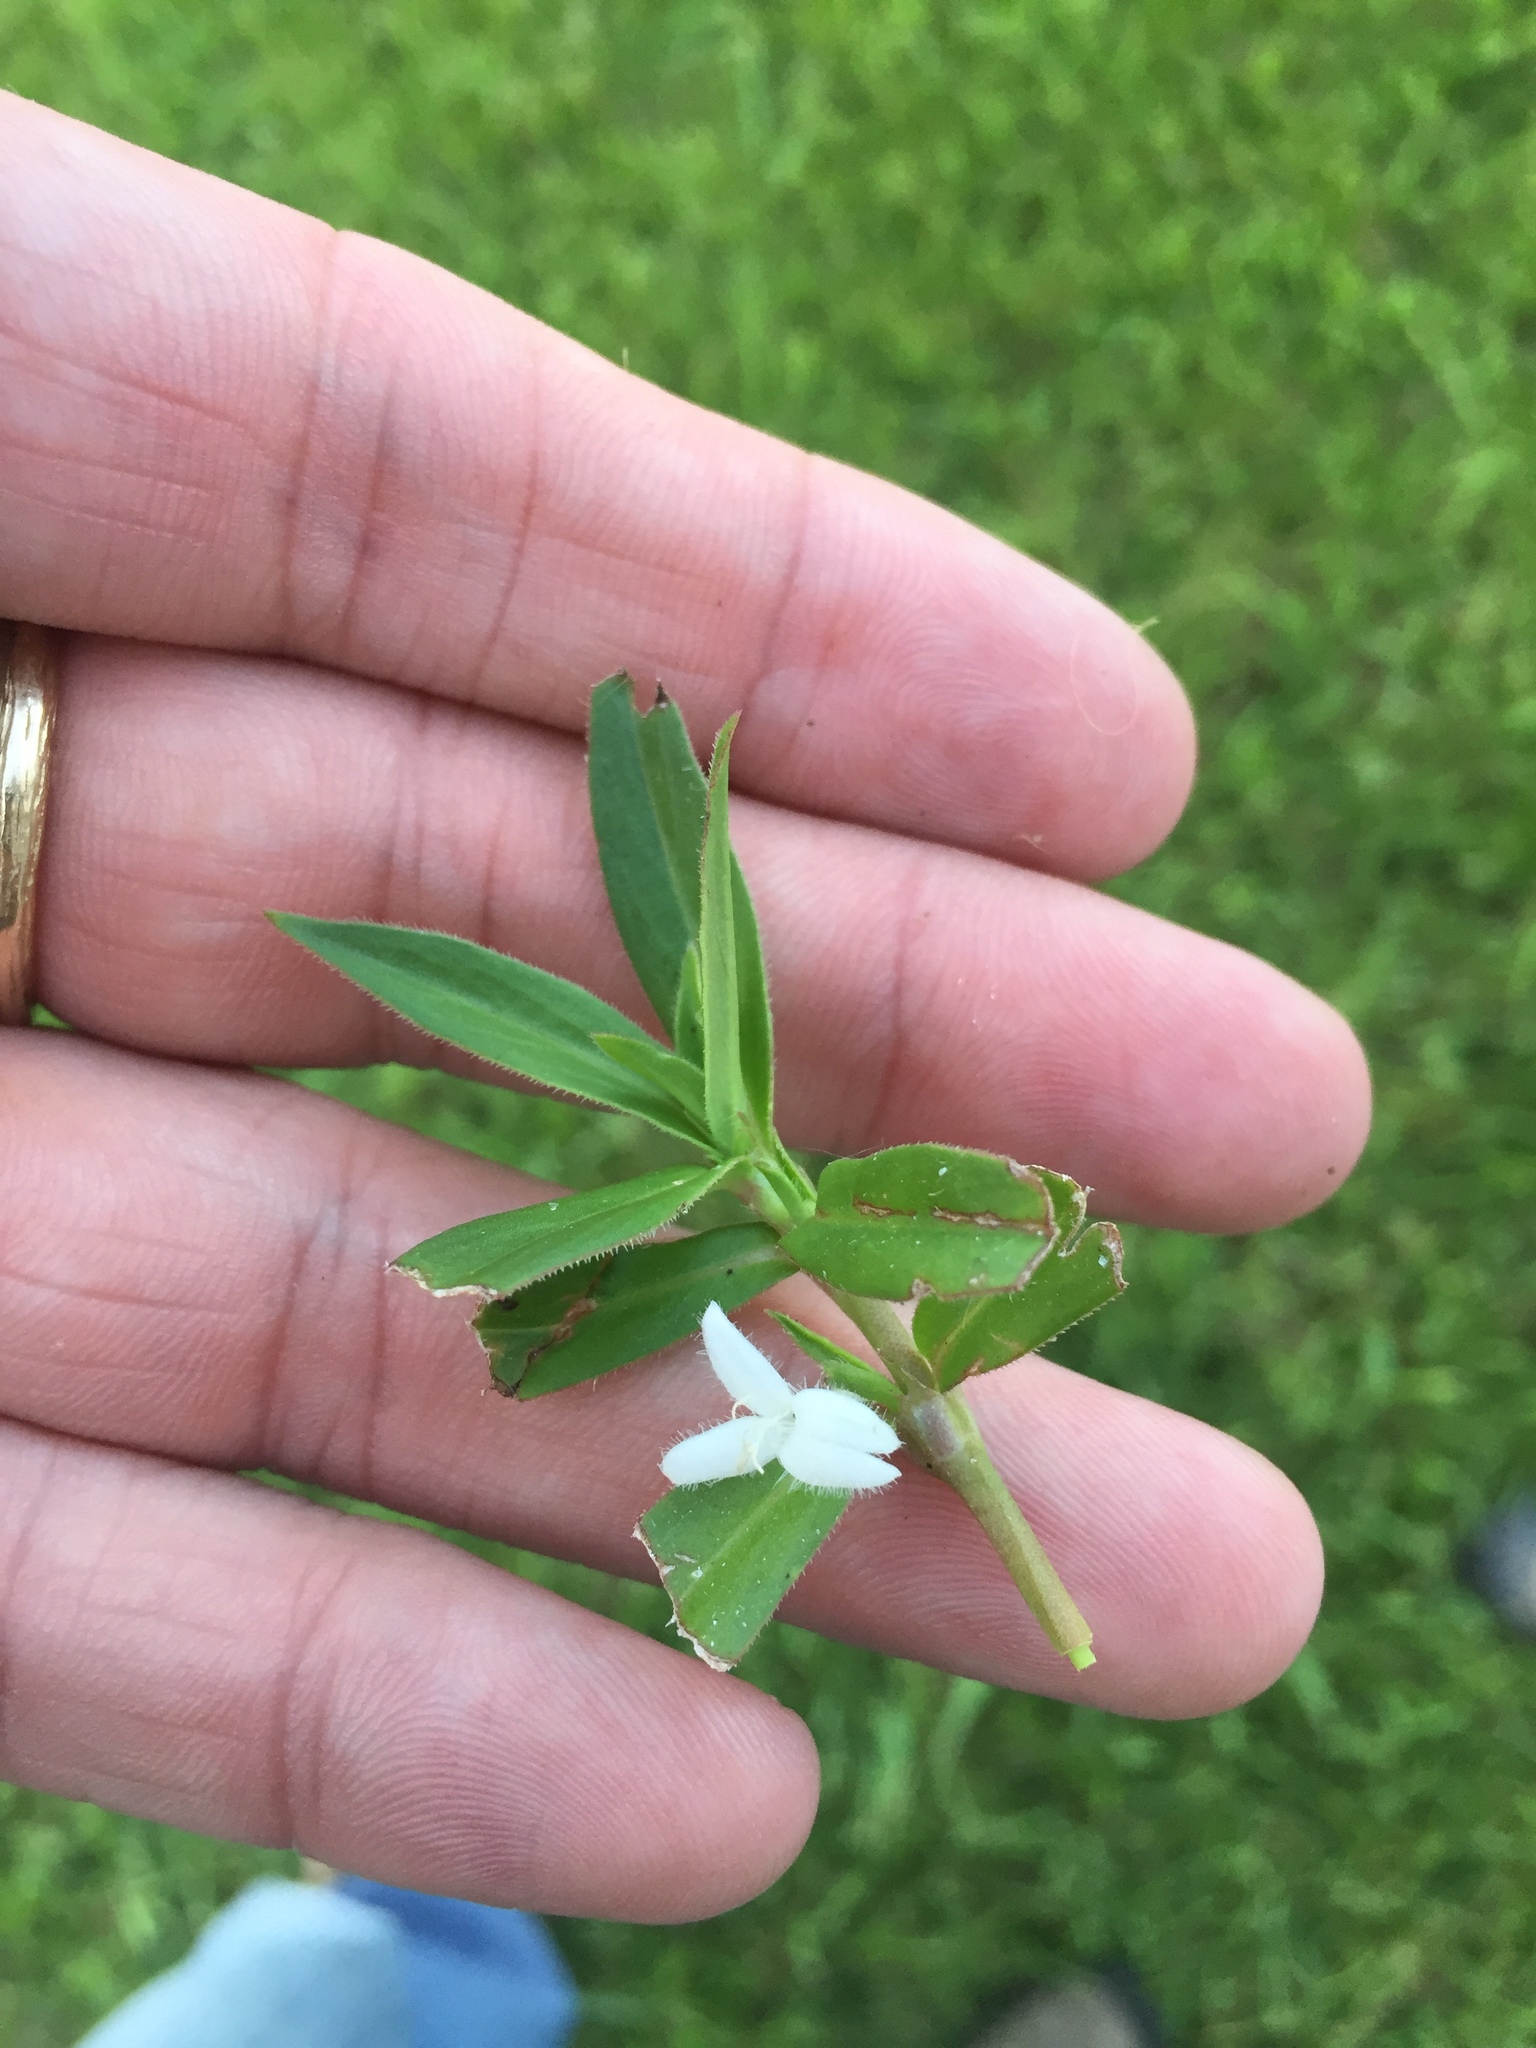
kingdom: Plantae
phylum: Tracheophyta
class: Magnoliopsida
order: Gentianales
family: Rubiaceae
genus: Diodia
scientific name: Diodia virginiana
